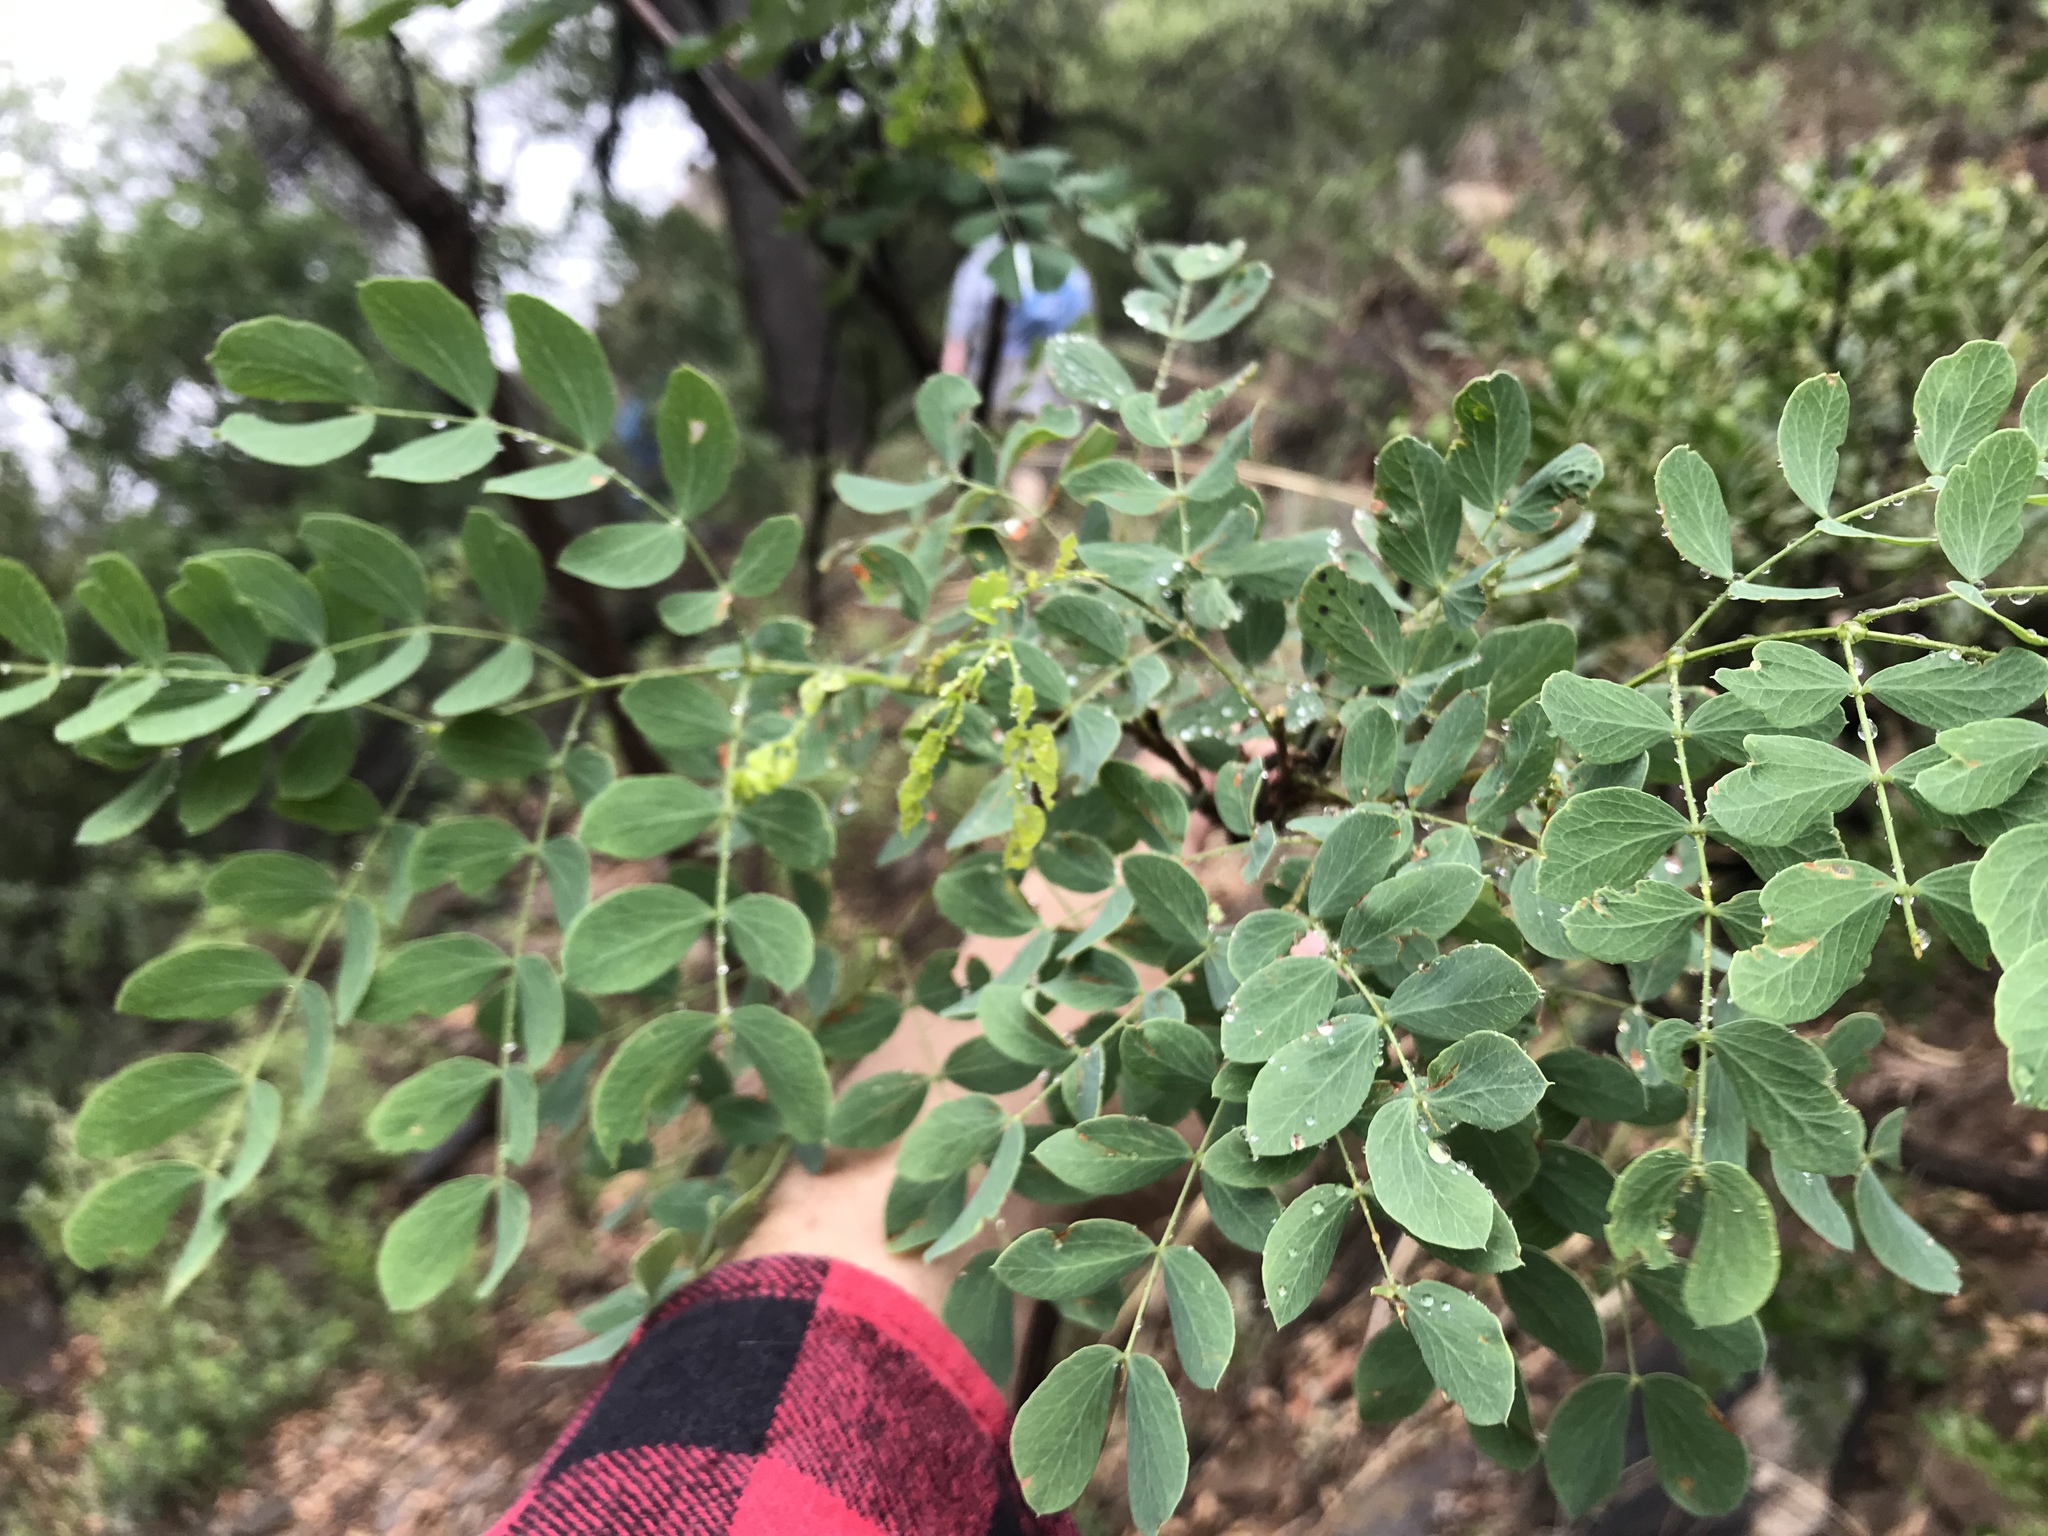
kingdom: Plantae
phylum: Tracheophyta
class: Magnoliopsida
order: Fabales
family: Fabaceae
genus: Leucaena
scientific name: Leucaena retusa
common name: Littleleaf leadtree
